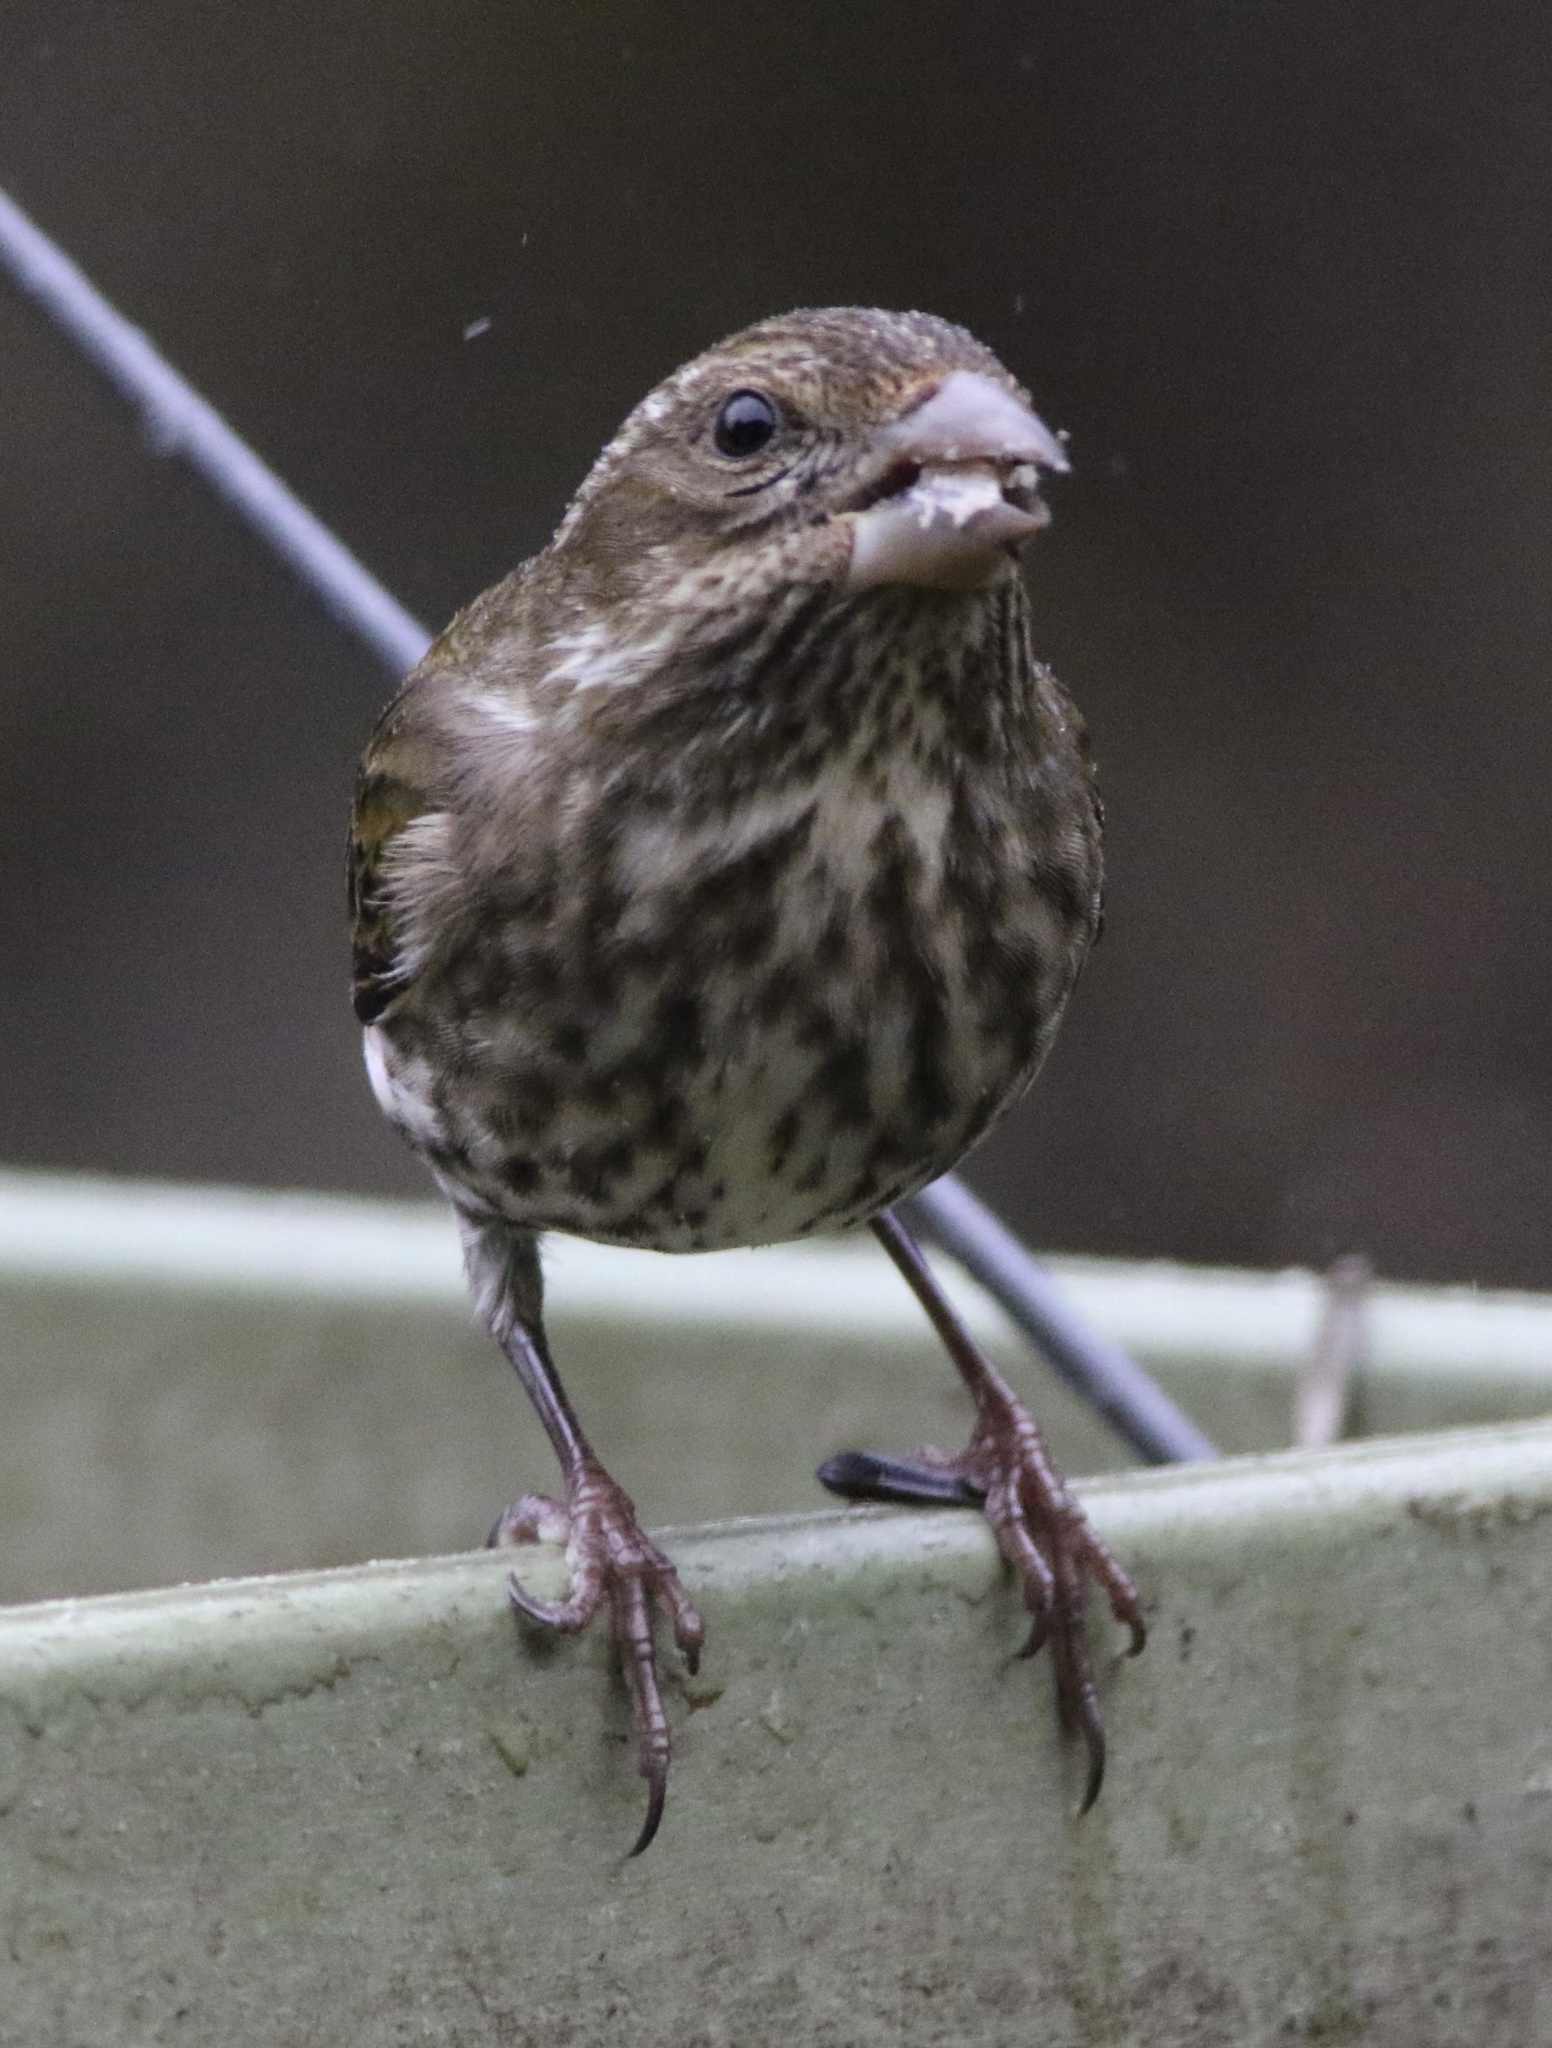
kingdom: Animalia
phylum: Chordata
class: Aves
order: Passeriformes
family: Fringillidae
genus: Haemorhous
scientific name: Haemorhous purpureus
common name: Purple finch
